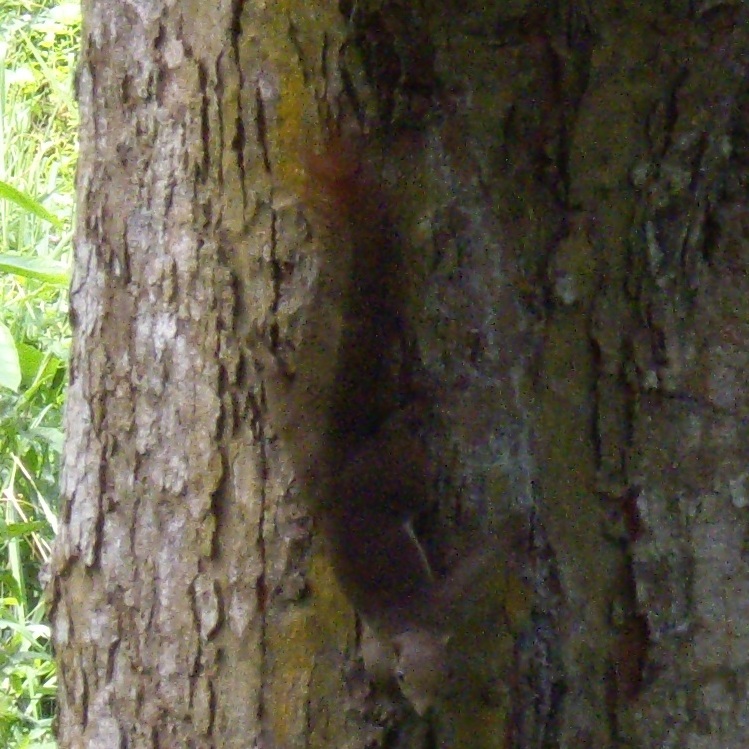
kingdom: Animalia
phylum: Chordata
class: Mammalia
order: Rodentia
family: Sciuridae
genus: Callosciurus
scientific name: Callosciurus notatus
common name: Plantain squirrel
